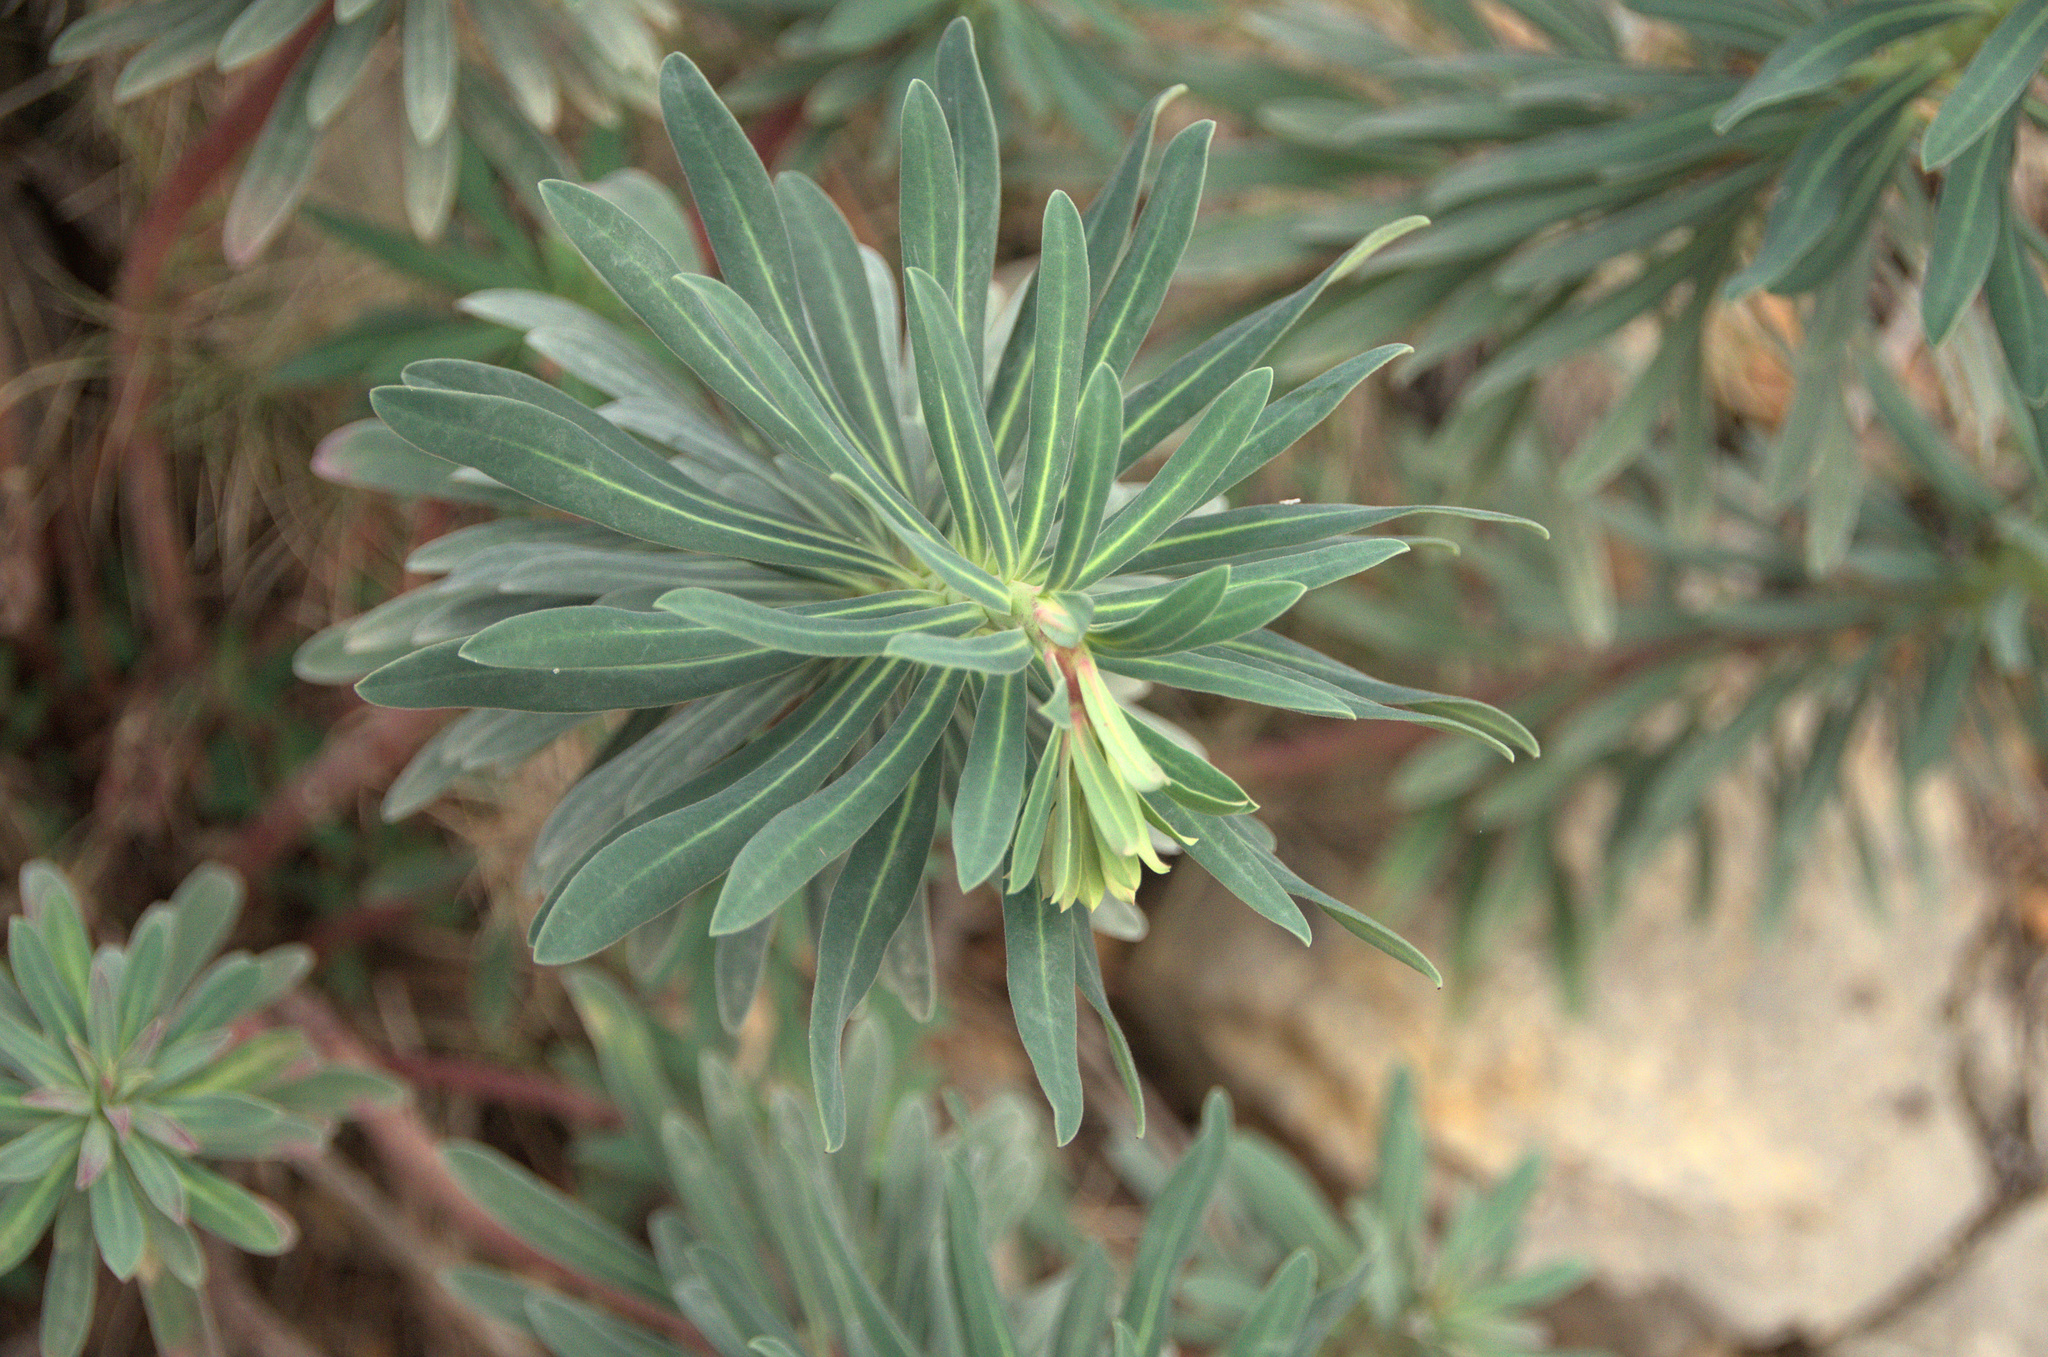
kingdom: Plantae
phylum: Tracheophyta
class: Magnoliopsida
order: Malpighiales
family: Euphorbiaceae
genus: Euphorbia
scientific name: Euphorbia characias
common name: Mediterranean spurge
